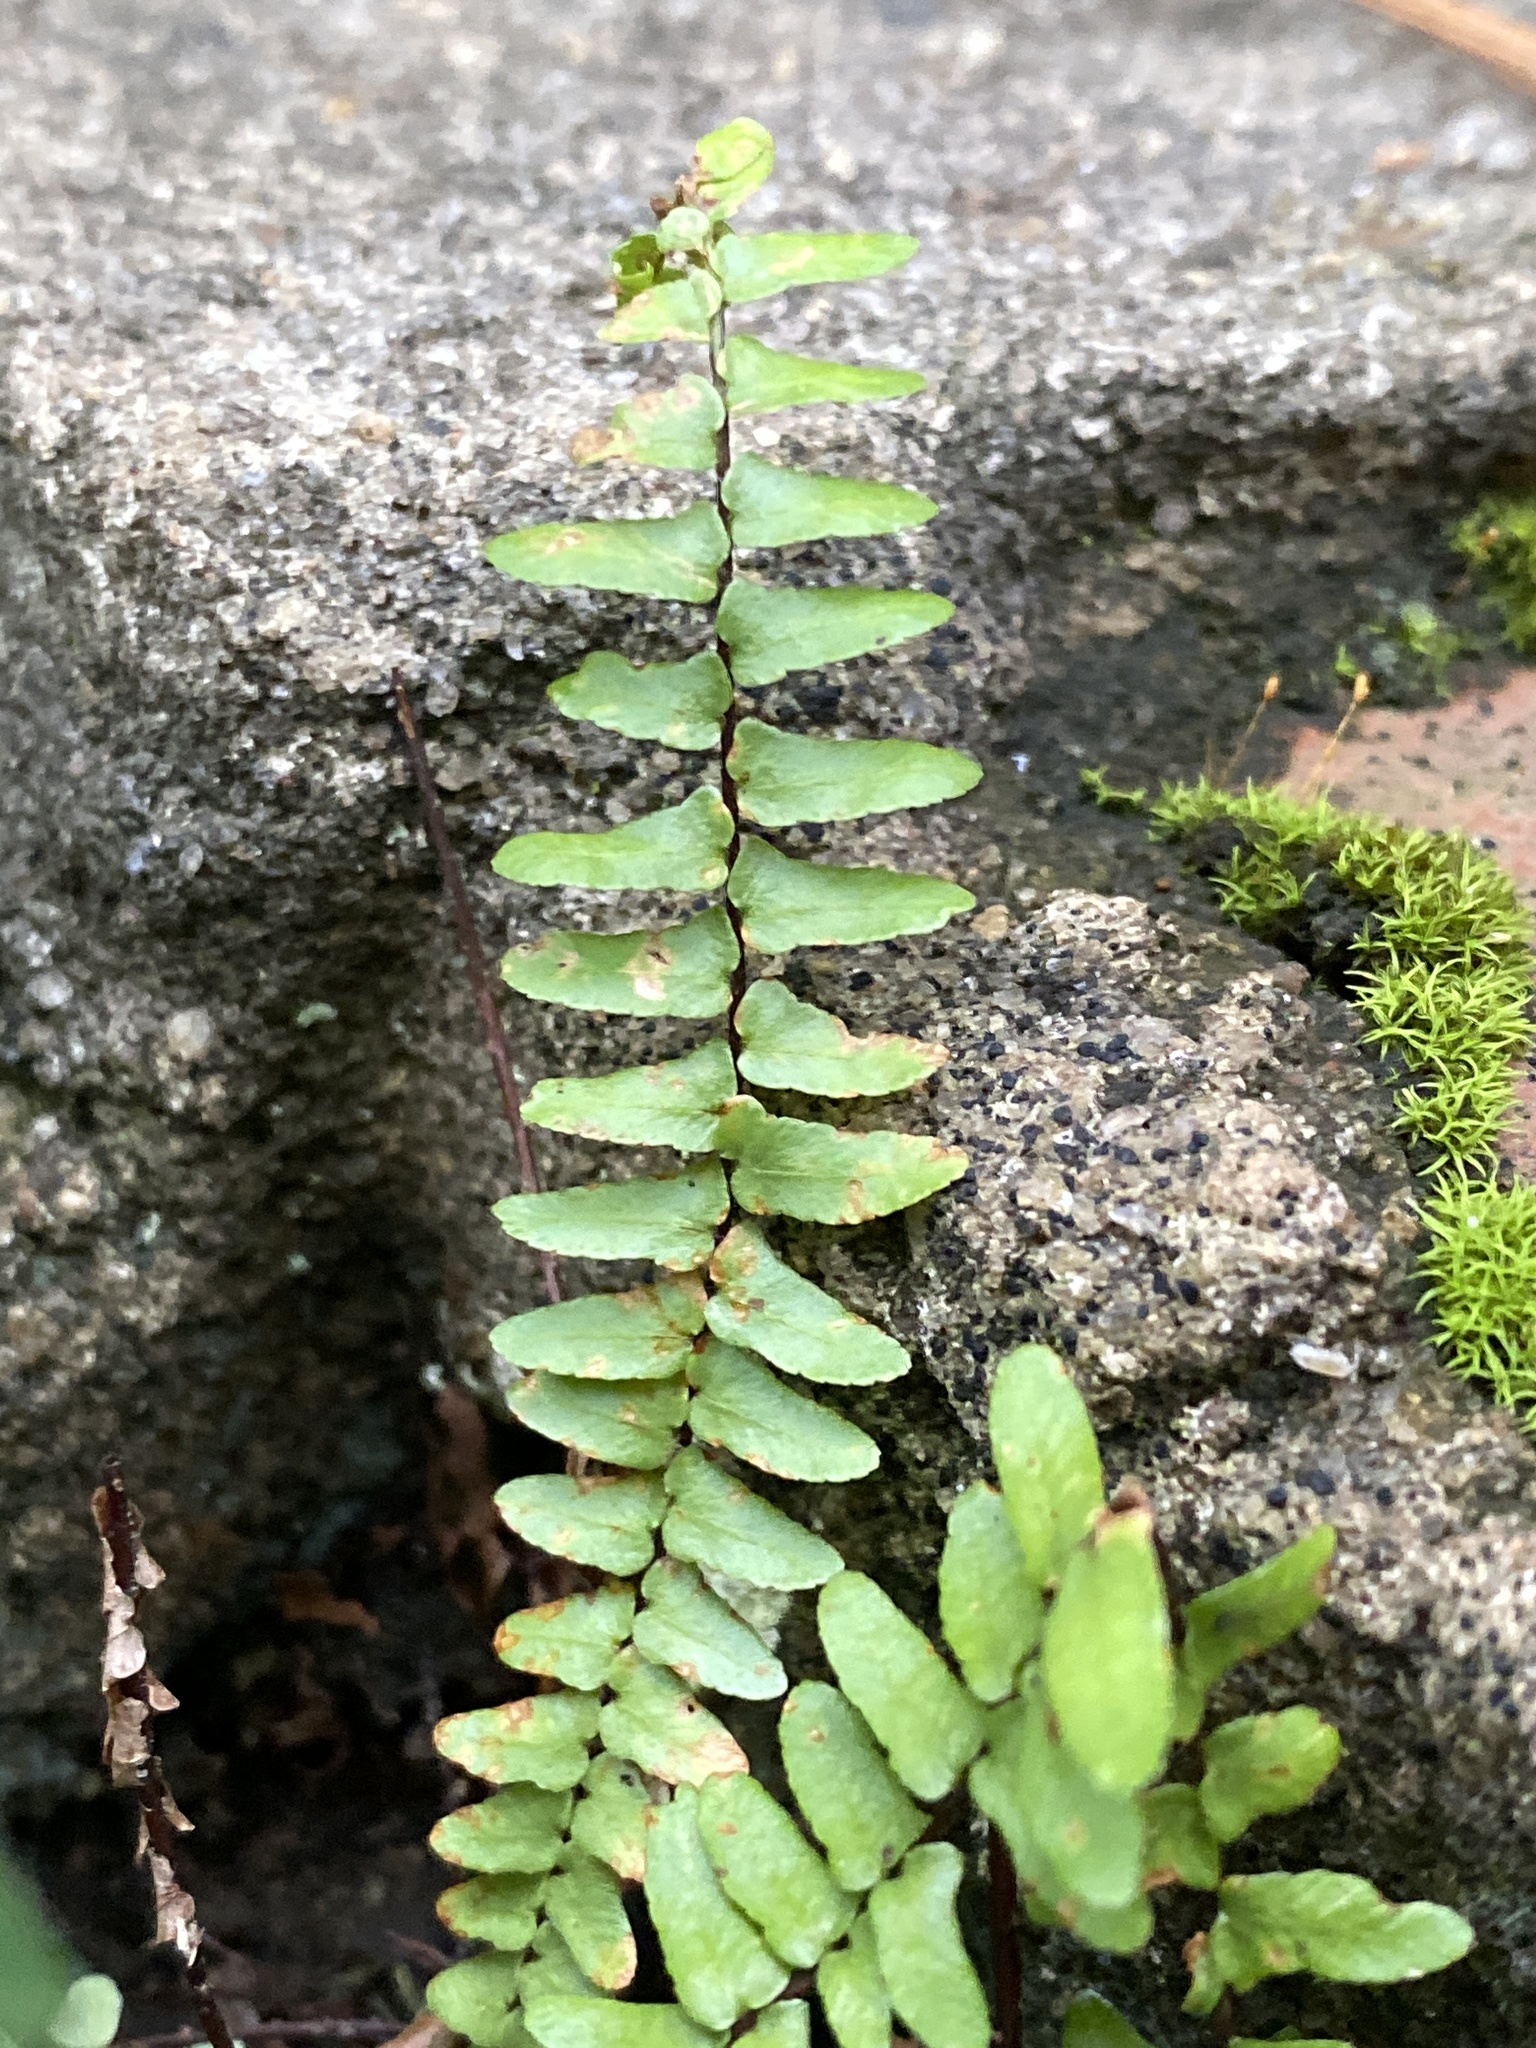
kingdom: Plantae
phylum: Tracheophyta
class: Polypodiopsida
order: Polypodiales
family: Aspleniaceae
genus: Asplenium
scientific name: Asplenium platyneuron
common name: Ebony spleenwort
